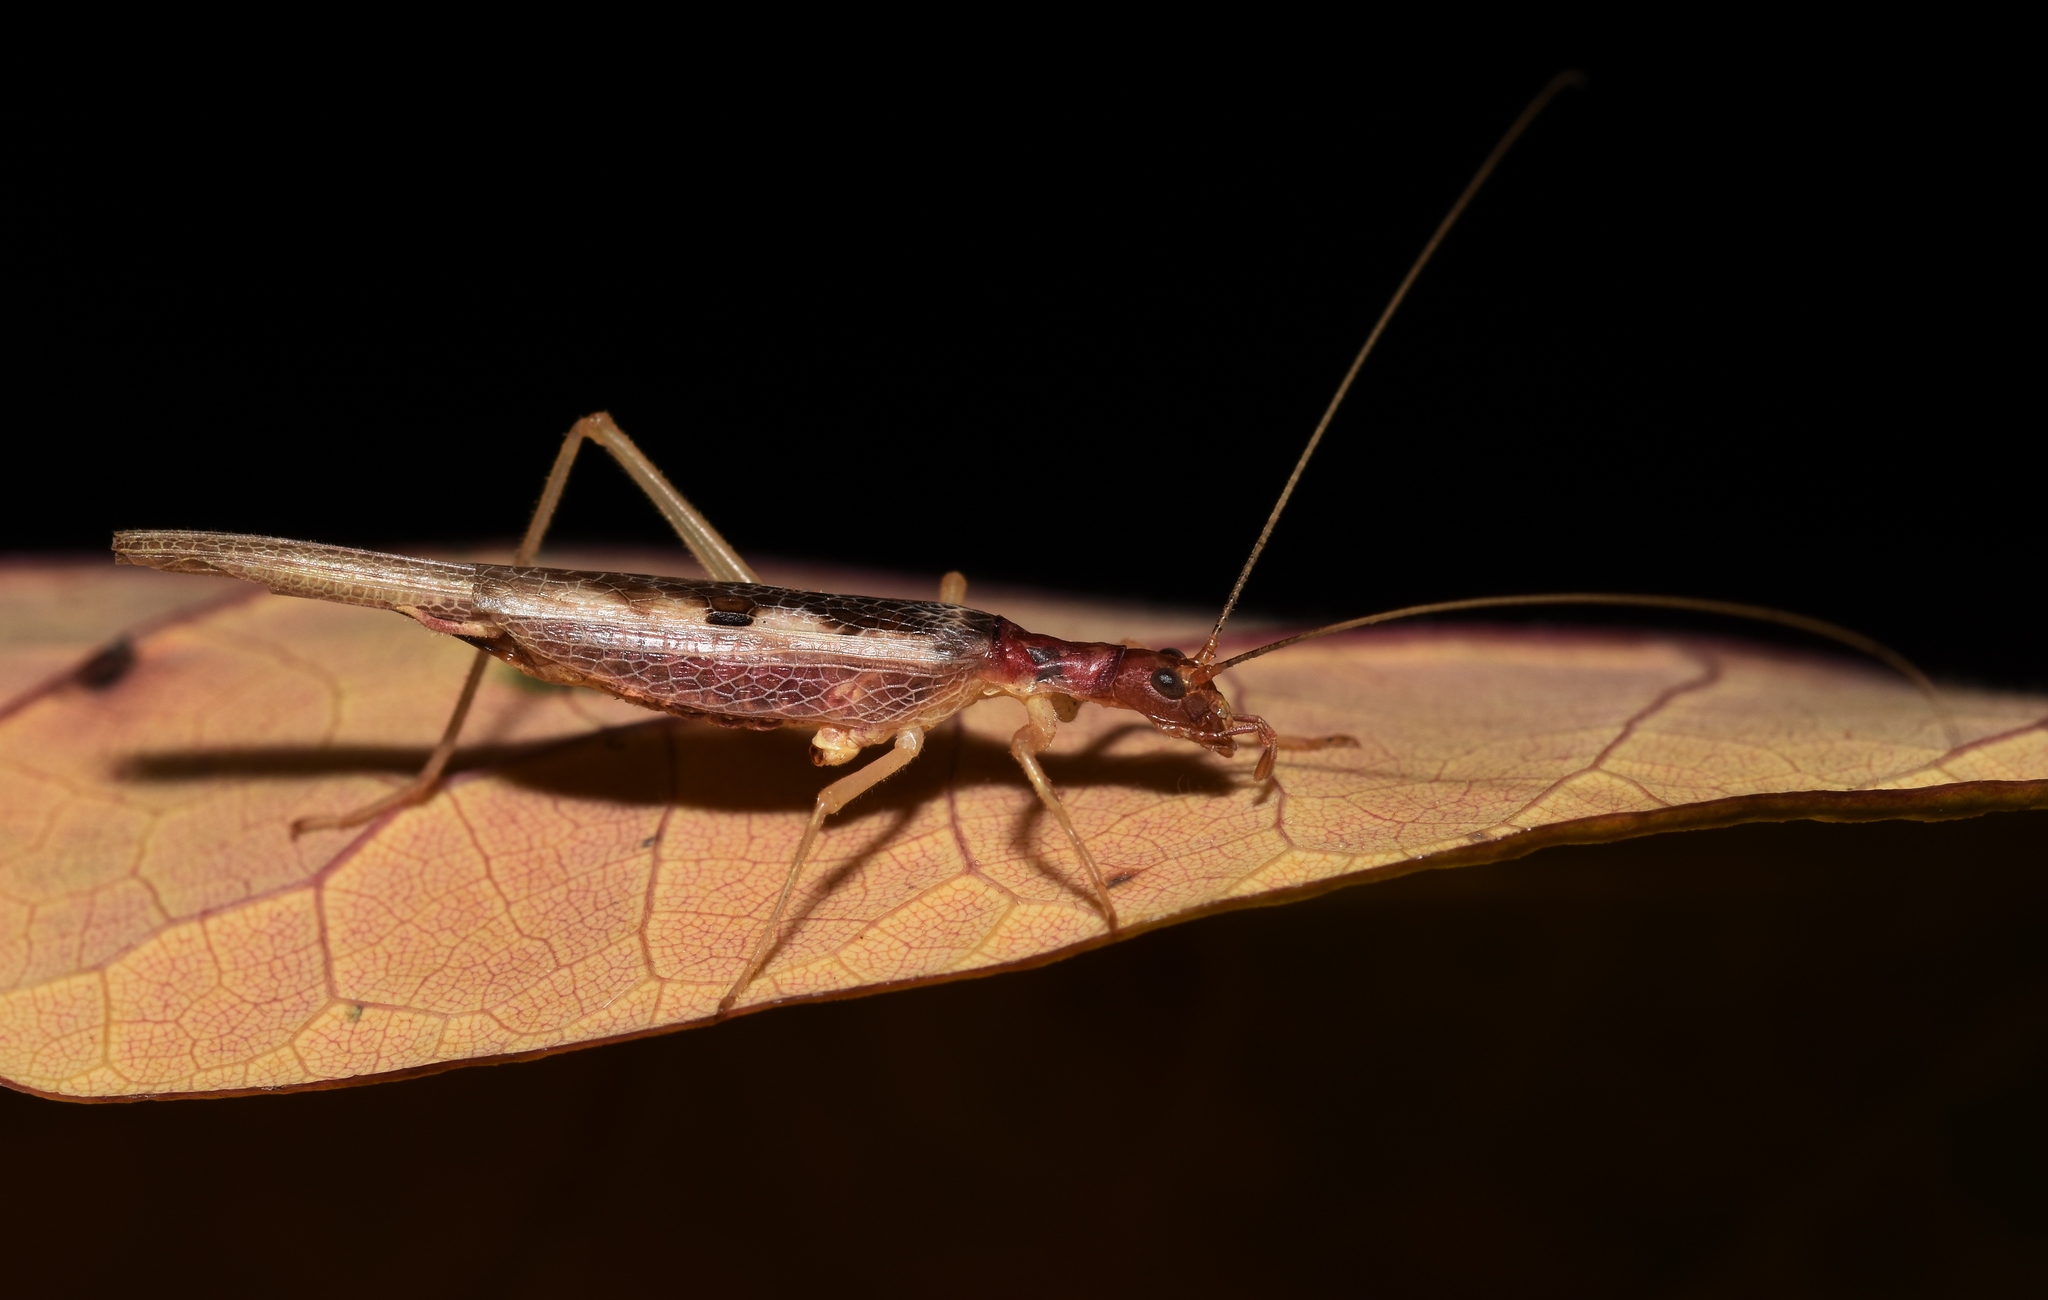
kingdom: Animalia
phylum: Arthropoda
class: Insecta
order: Orthoptera
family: Gryllidae
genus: Neoxabea
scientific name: Neoxabea bipunctata
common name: Two-spotted tree cricket
